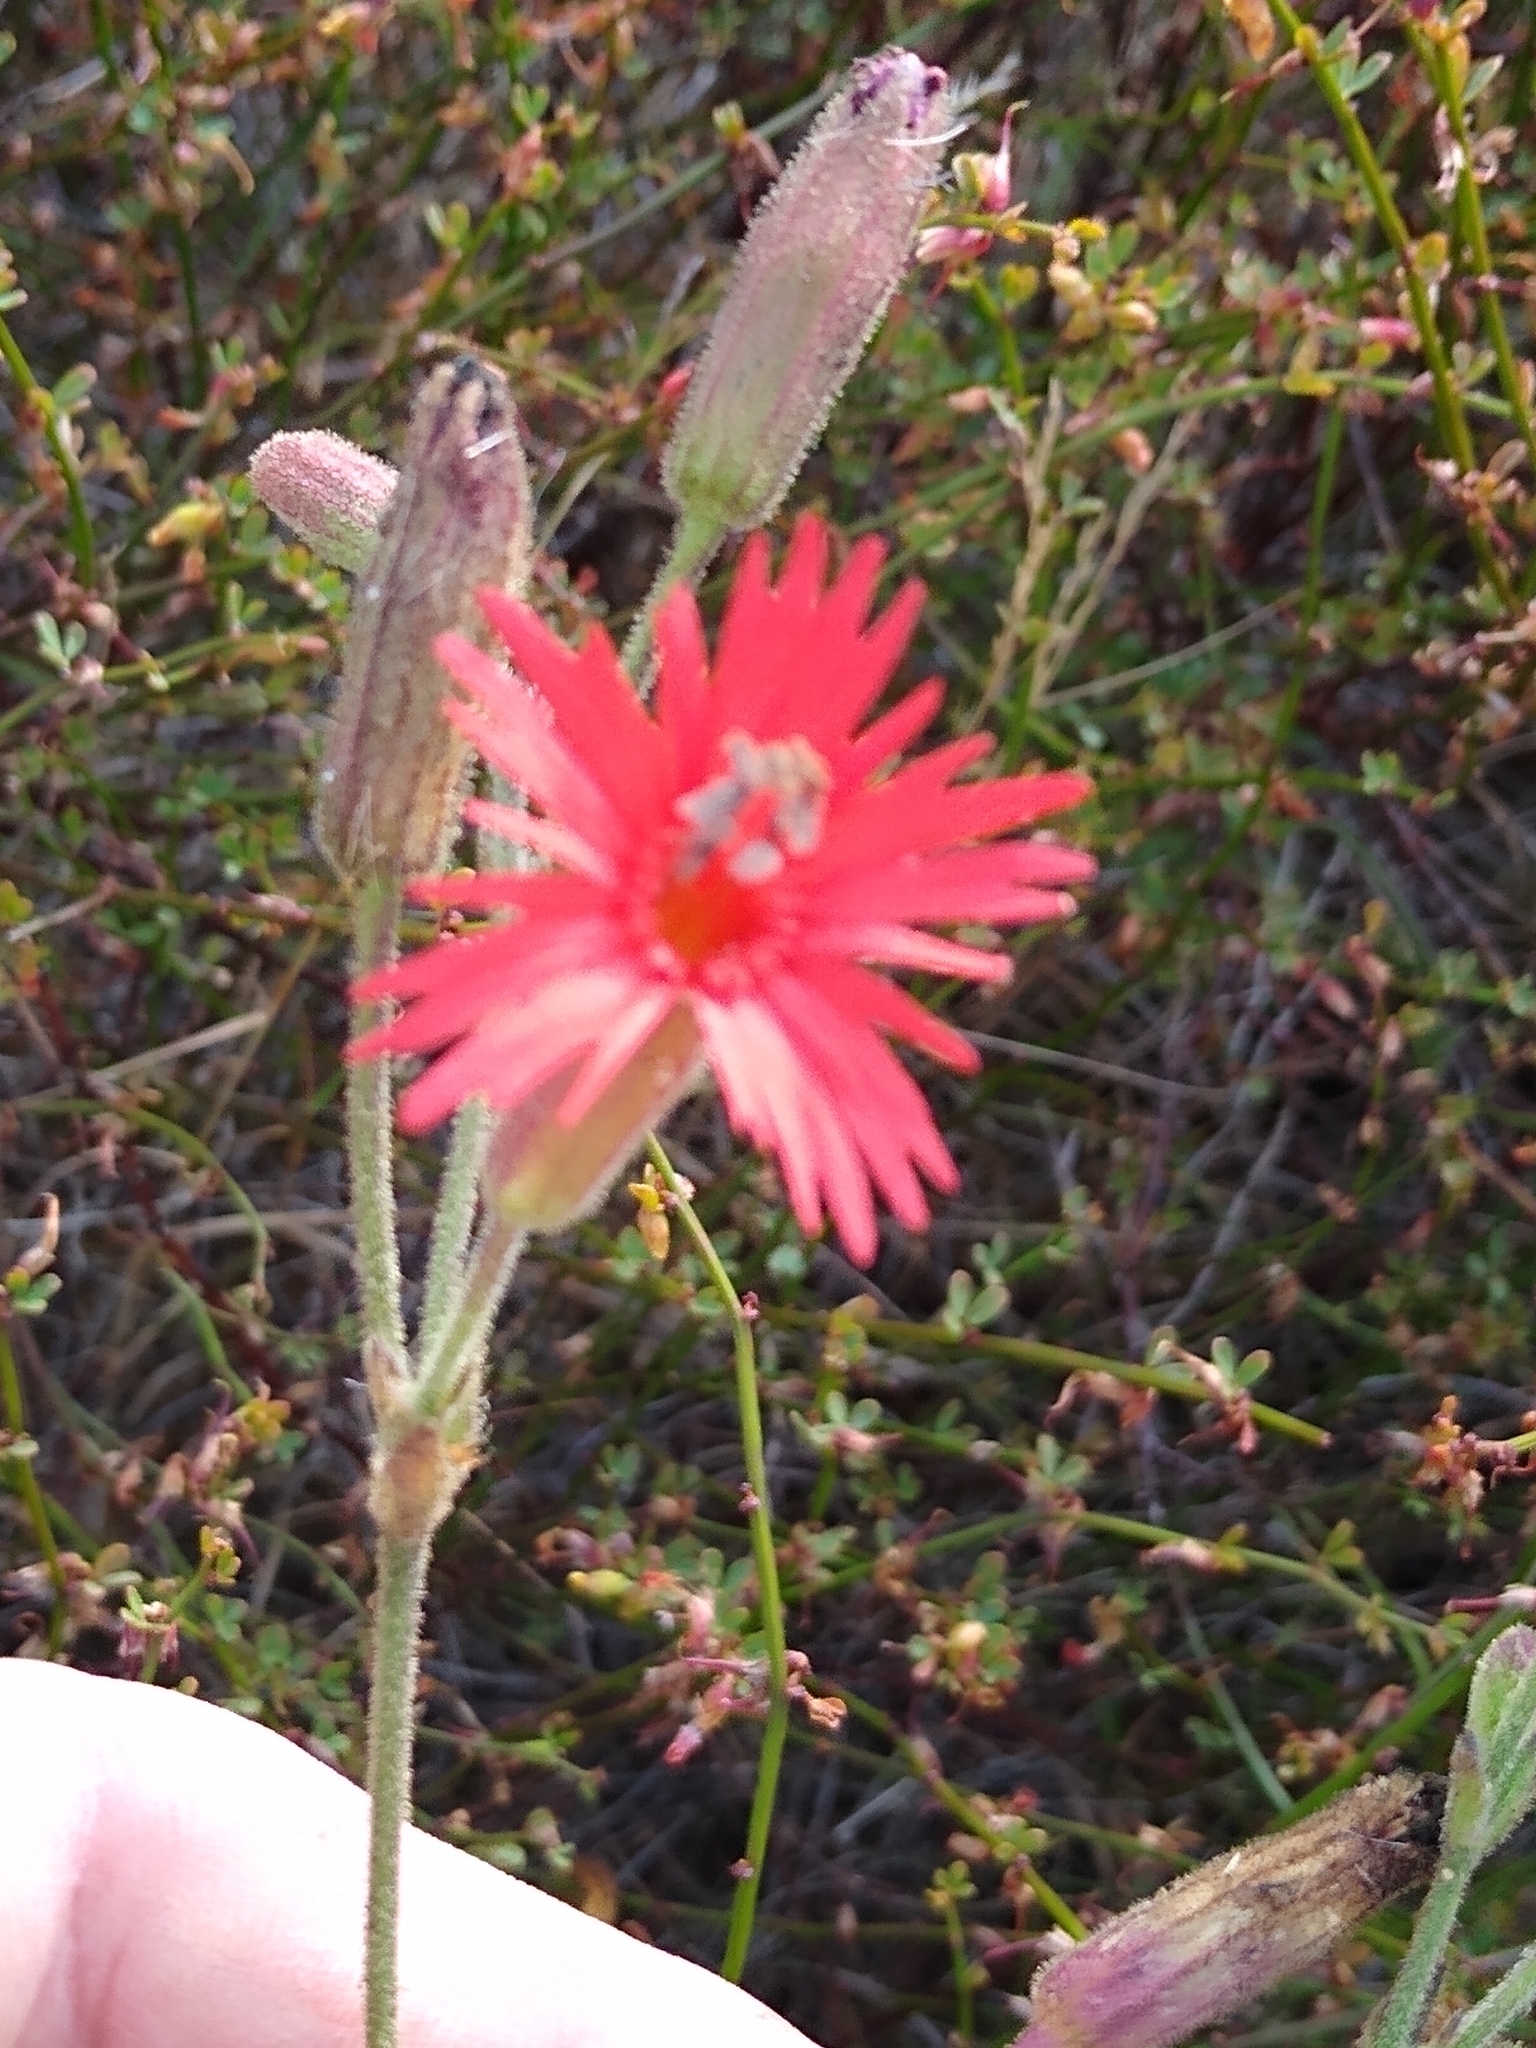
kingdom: Plantae
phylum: Tracheophyta
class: Magnoliopsida
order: Caryophyllales
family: Caryophyllaceae
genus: Silene
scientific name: Silene laciniata
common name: Indian-pink
